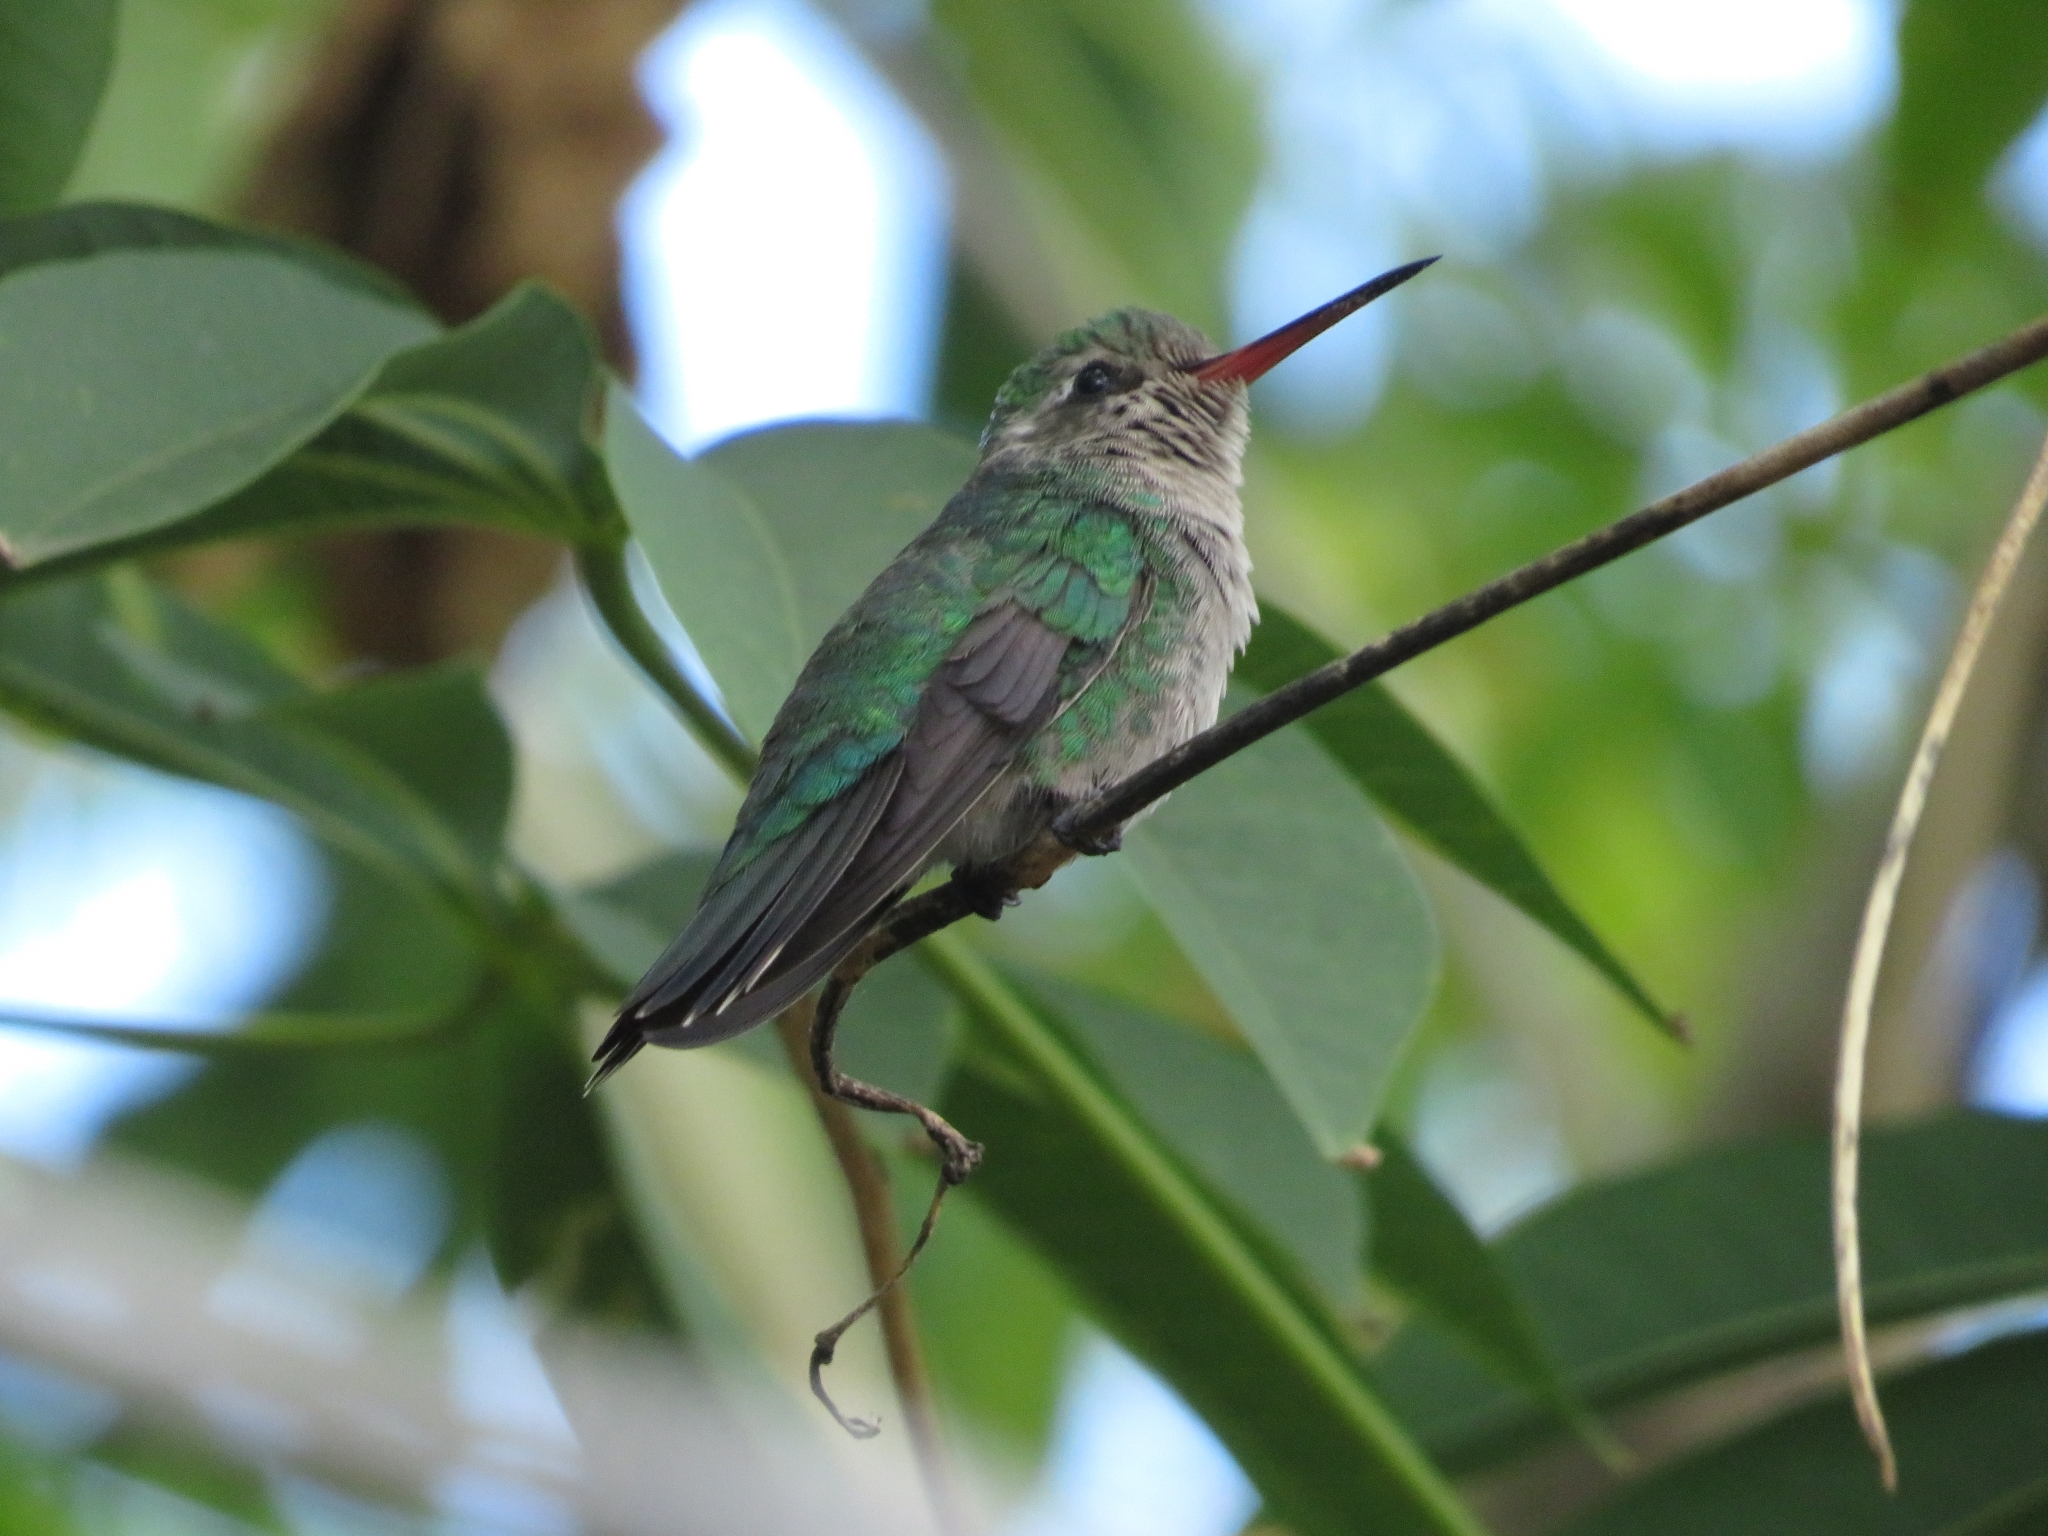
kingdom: Animalia
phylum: Chordata
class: Aves
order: Apodiformes
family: Trochilidae
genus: Chlorostilbon
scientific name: Chlorostilbon lucidus
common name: Glittering-bellied emerald
